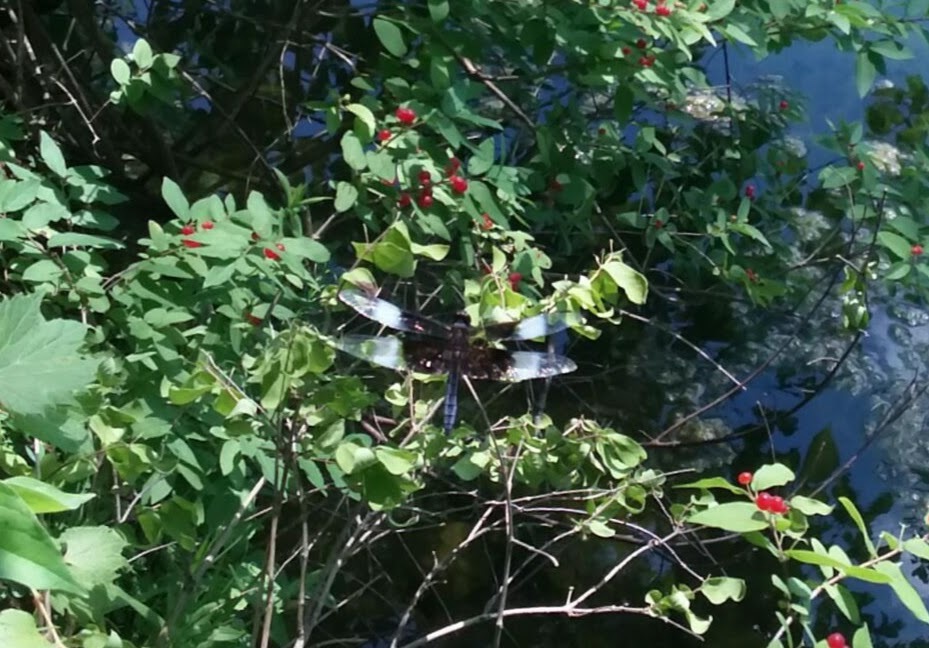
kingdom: Animalia
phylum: Arthropoda
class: Insecta
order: Odonata
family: Libellulidae
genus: Libellula
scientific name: Libellula luctuosa
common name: Widow skimmer
